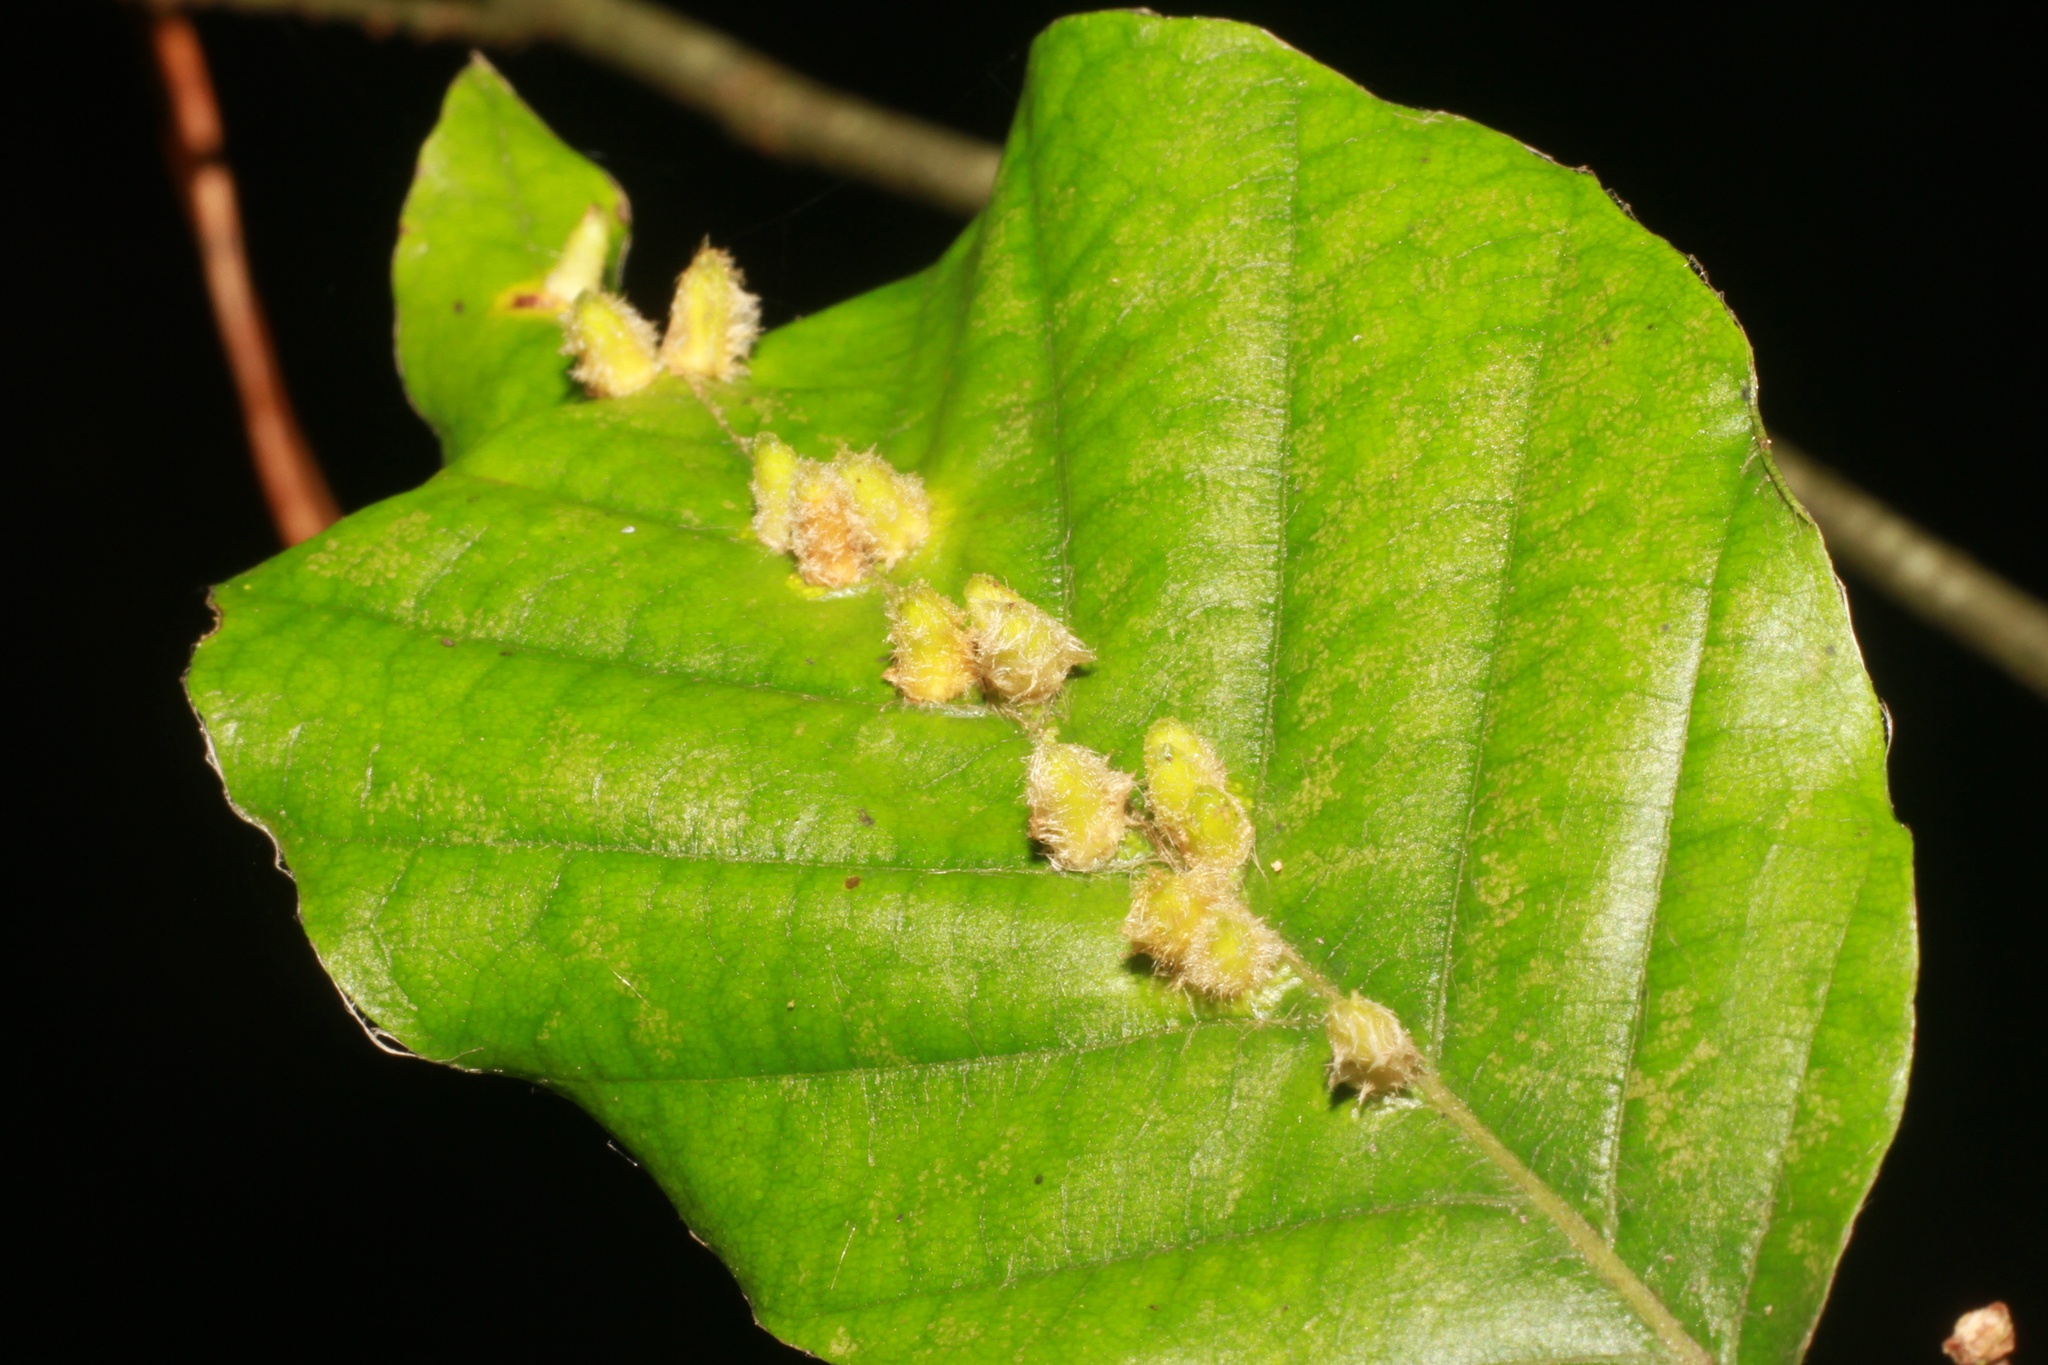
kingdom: Animalia
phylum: Arthropoda
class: Insecta
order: Diptera
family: Cecidomyiidae
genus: Hartigiola
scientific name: Hartigiola annulipes
